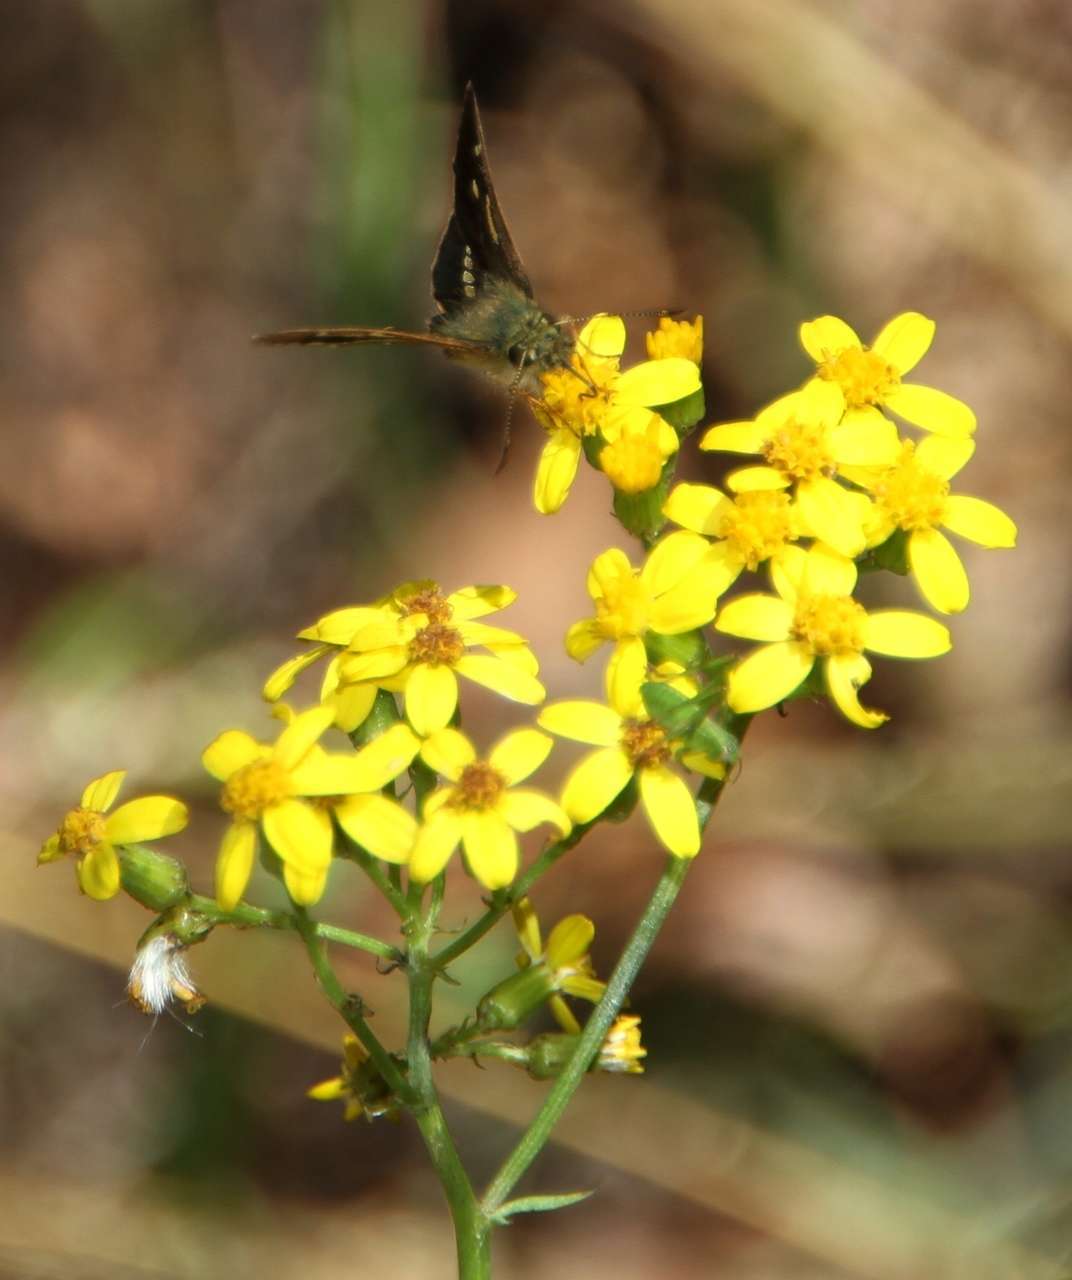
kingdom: Animalia
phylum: Arthropoda
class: Insecta
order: Lepidoptera
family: Hesperiidae
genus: Dispar
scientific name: Dispar compacta
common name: Barred skipper
